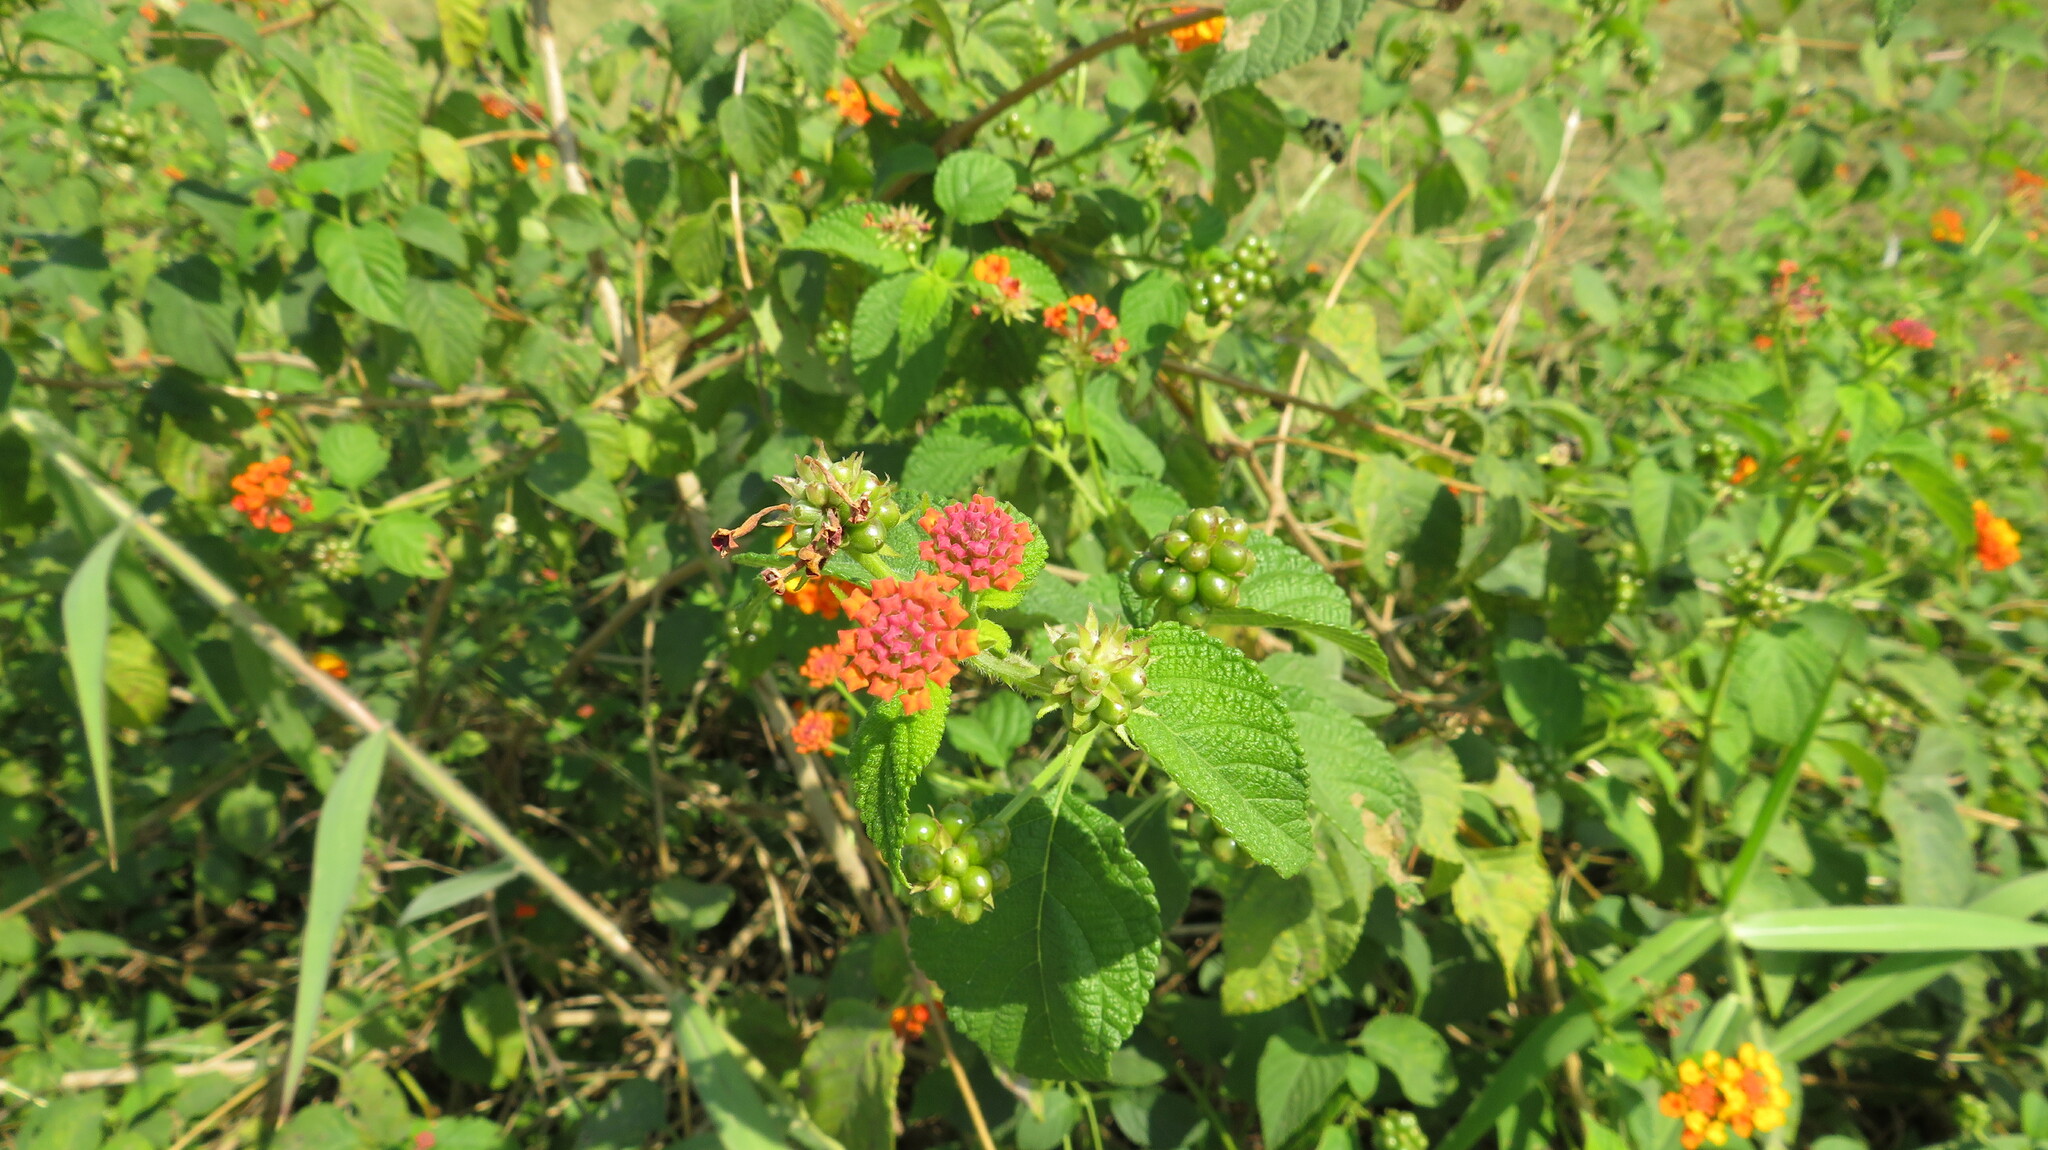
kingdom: Plantae
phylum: Tracheophyta
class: Magnoliopsida
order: Lamiales
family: Verbenaceae
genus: Lantana
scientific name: Lantana camara
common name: Lantana
